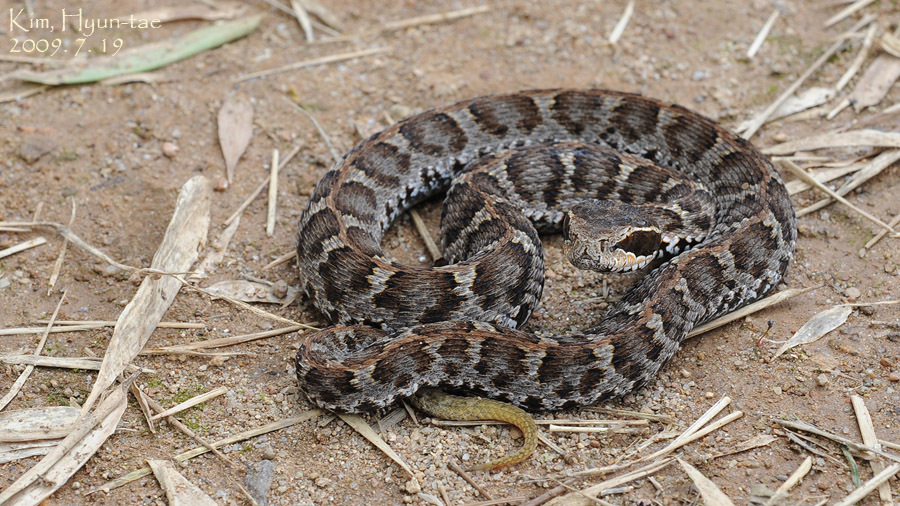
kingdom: Animalia
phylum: Chordata
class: Squamata
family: Viperidae
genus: Gloydius
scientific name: Gloydius brevicauda
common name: Short-tailed mamushi
